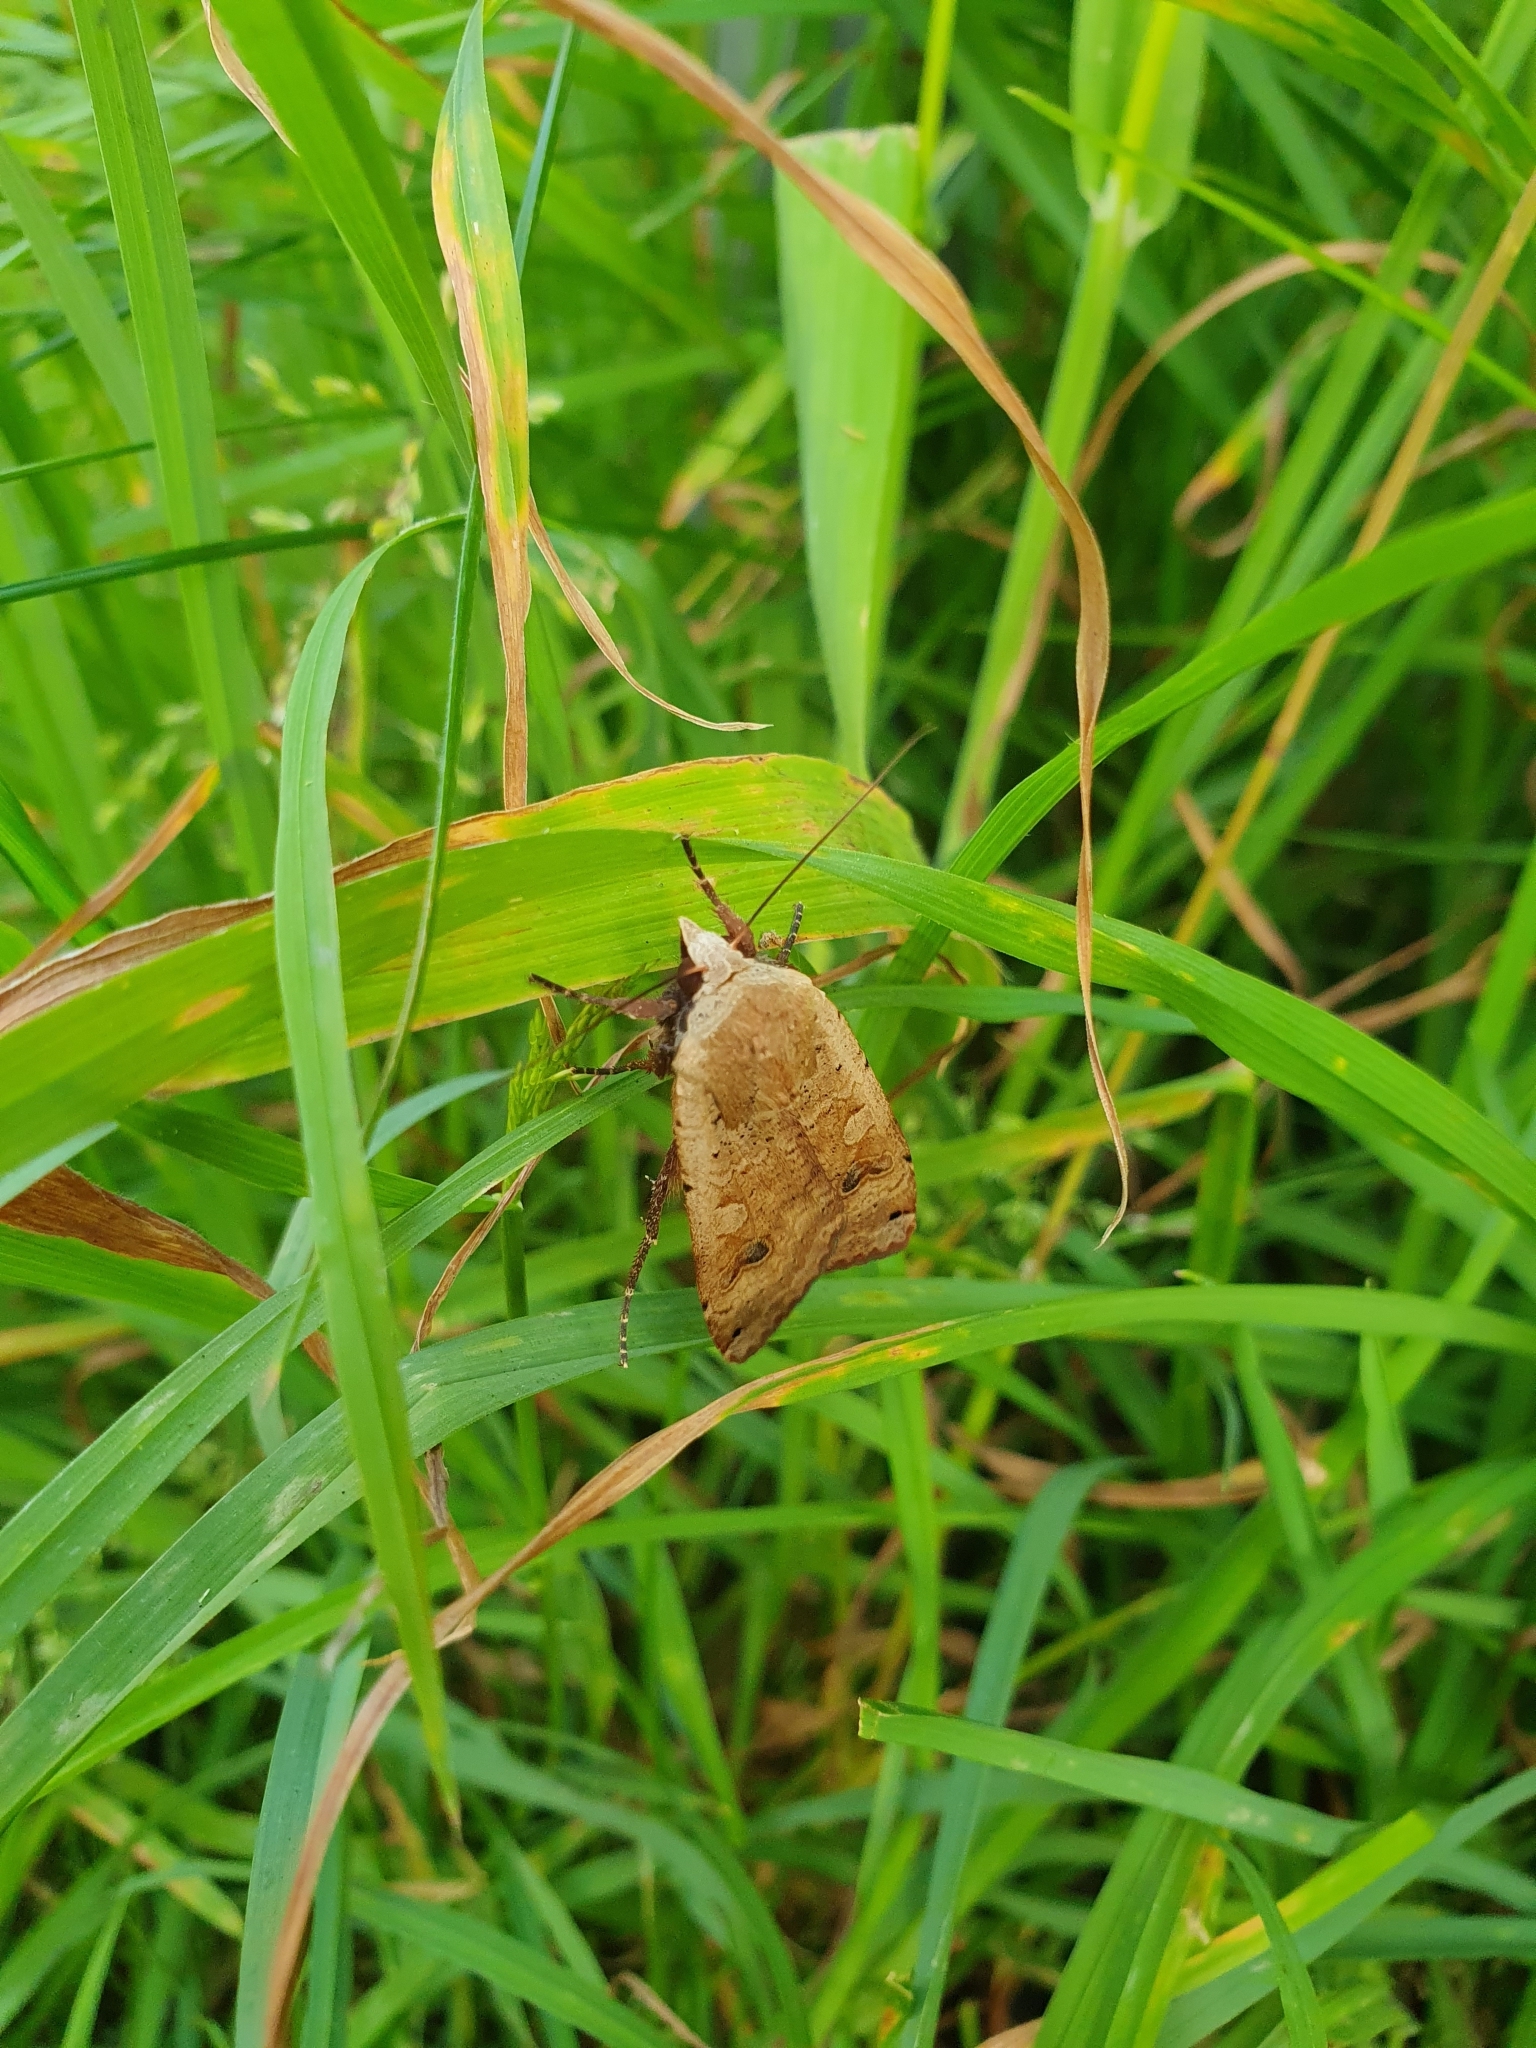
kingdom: Animalia
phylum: Arthropoda
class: Insecta
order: Lepidoptera
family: Noctuidae
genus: Noctua
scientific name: Noctua pronuba
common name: Large yellow underwing
